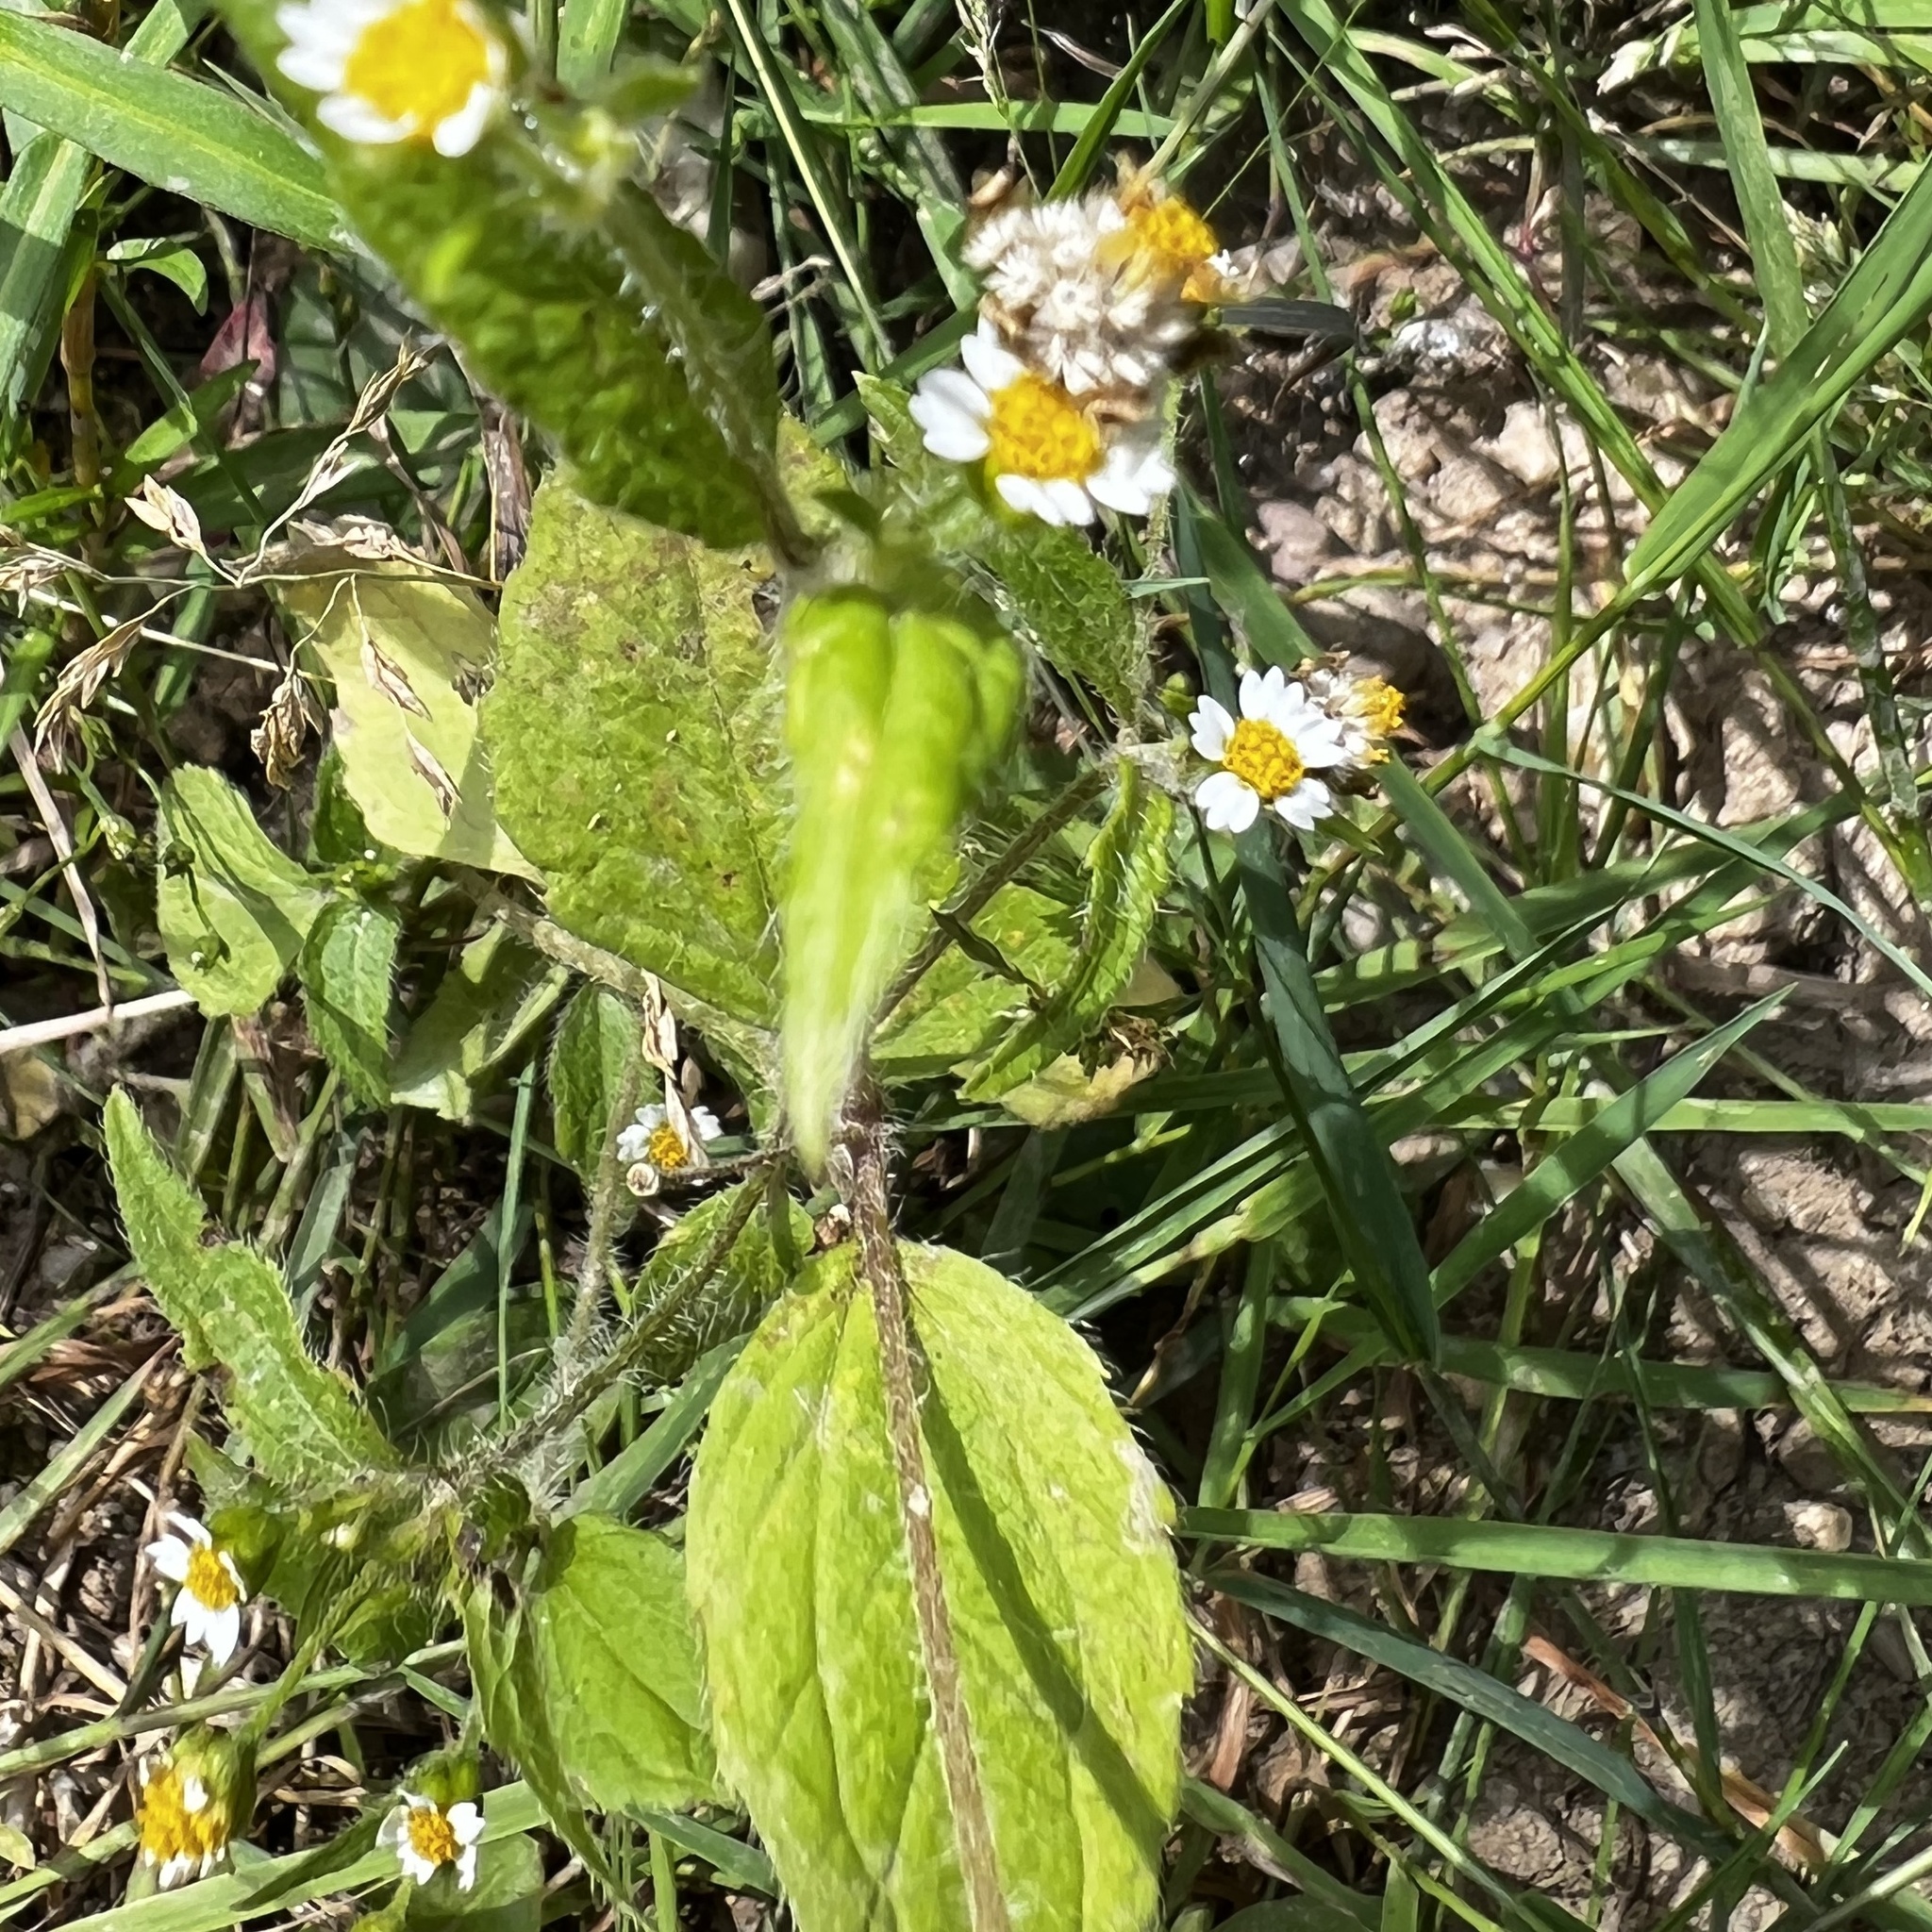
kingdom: Plantae
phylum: Tracheophyta
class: Magnoliopsida
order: Asterales
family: Asteraceae
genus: Galinsoga
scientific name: Galinsoga quadriradiata
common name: Shaggy soldier
